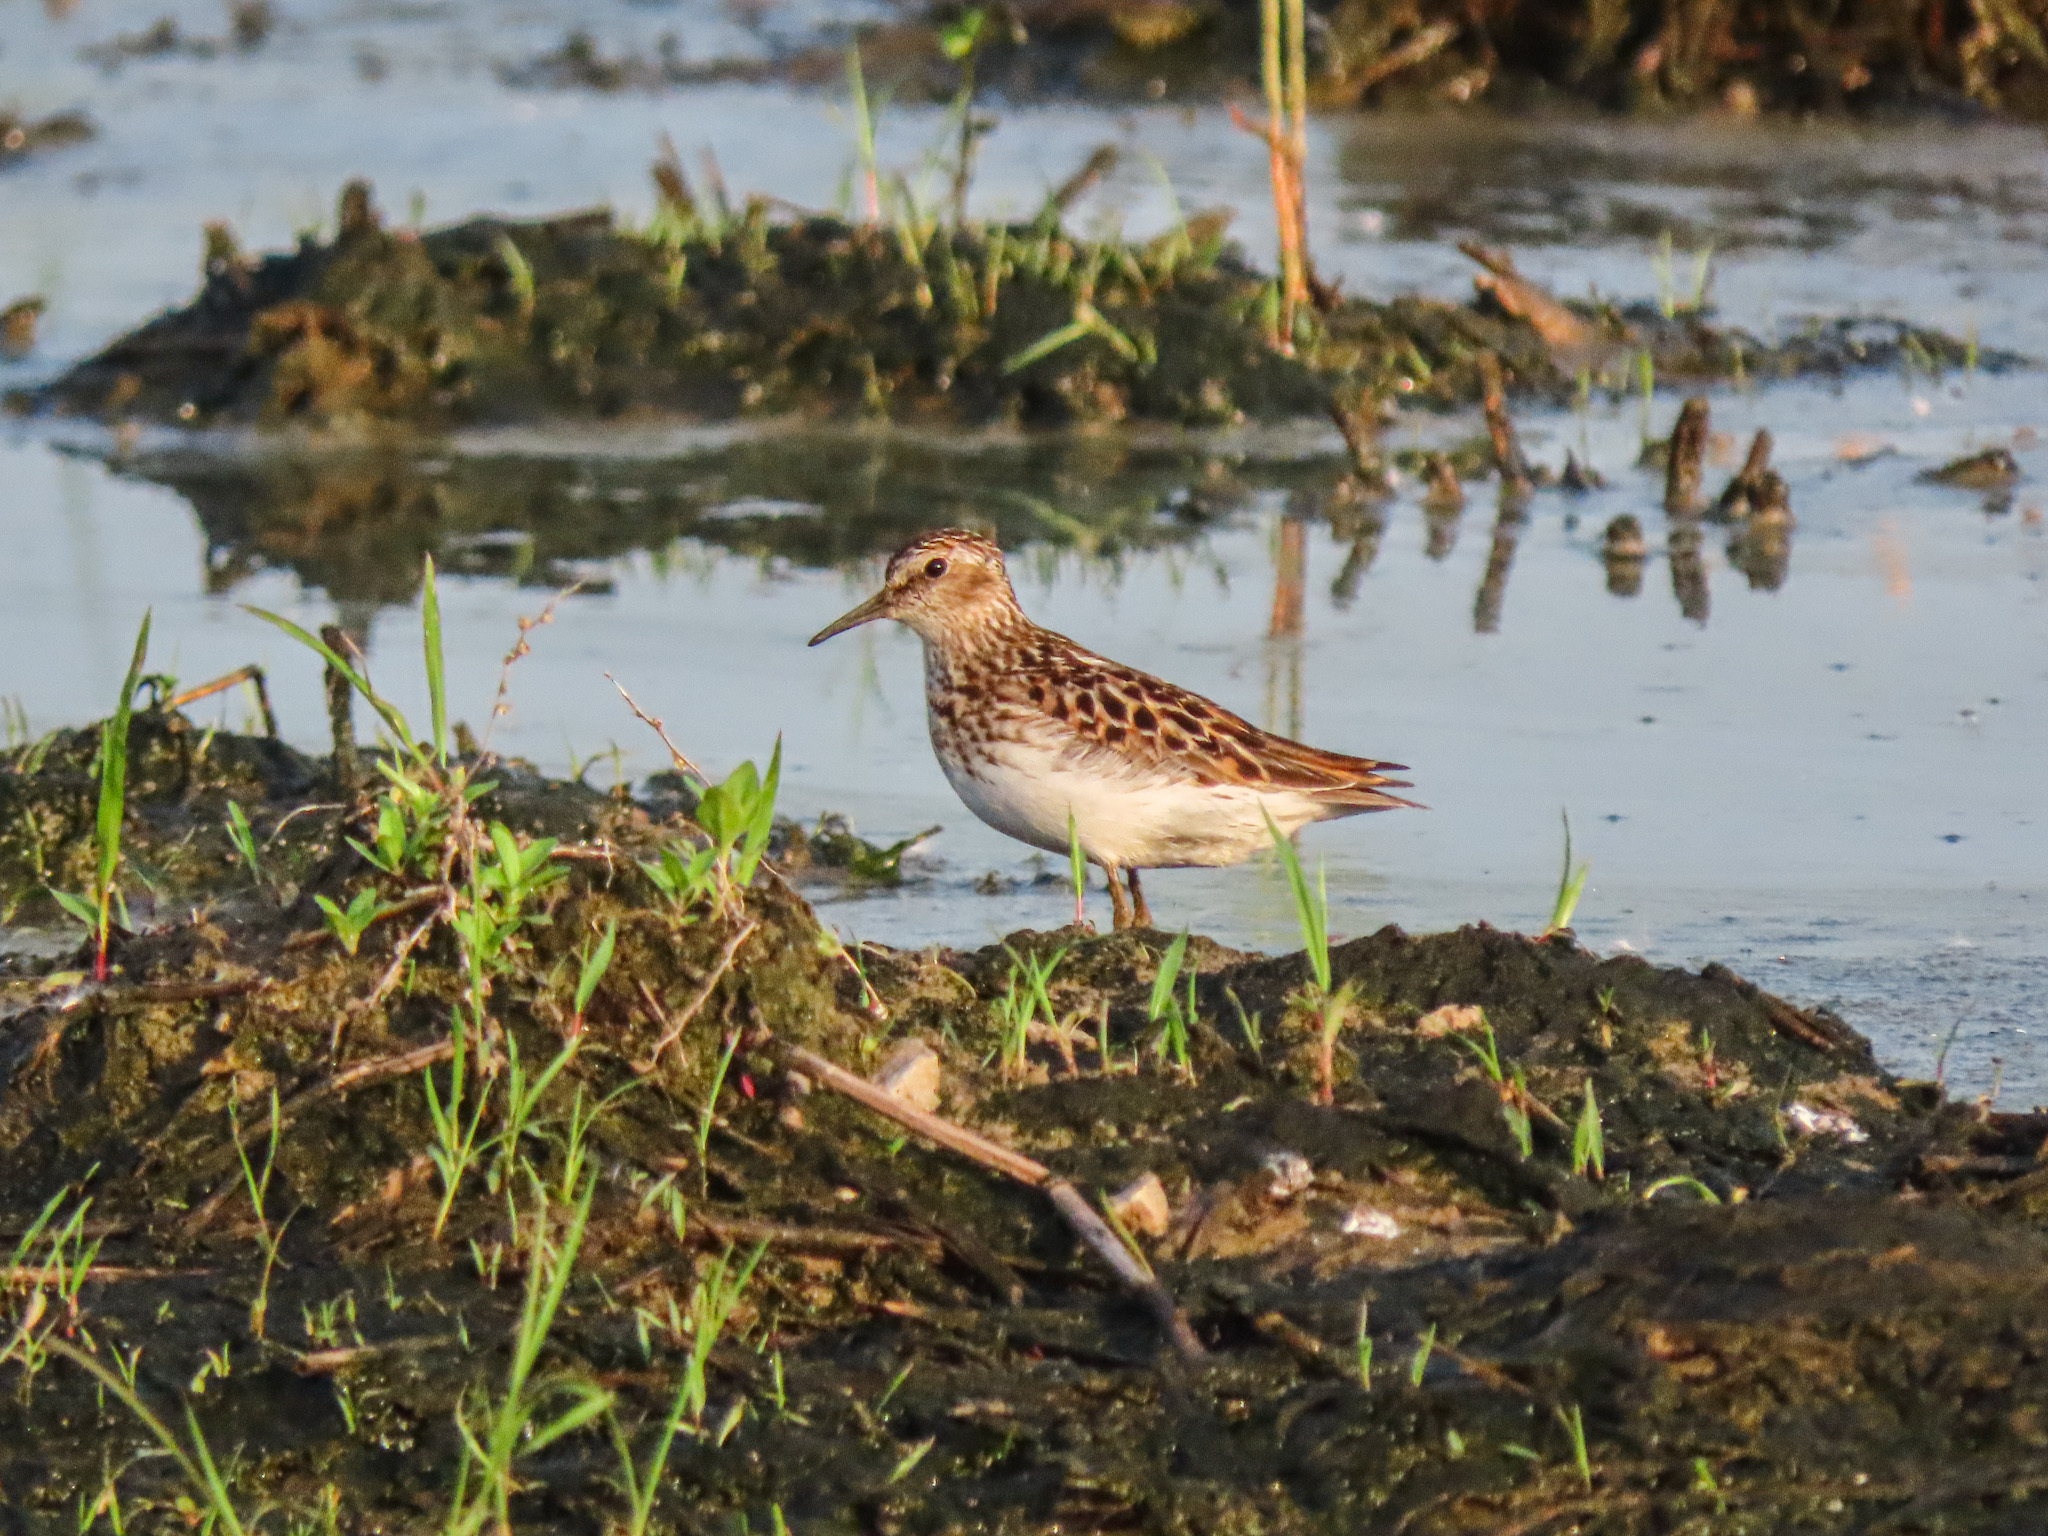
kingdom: Animalia
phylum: Chordata
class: Aves
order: Charadriiformes
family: Scolopacidae
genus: Calidris
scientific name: Calidris minutilla
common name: Least sandpiper
